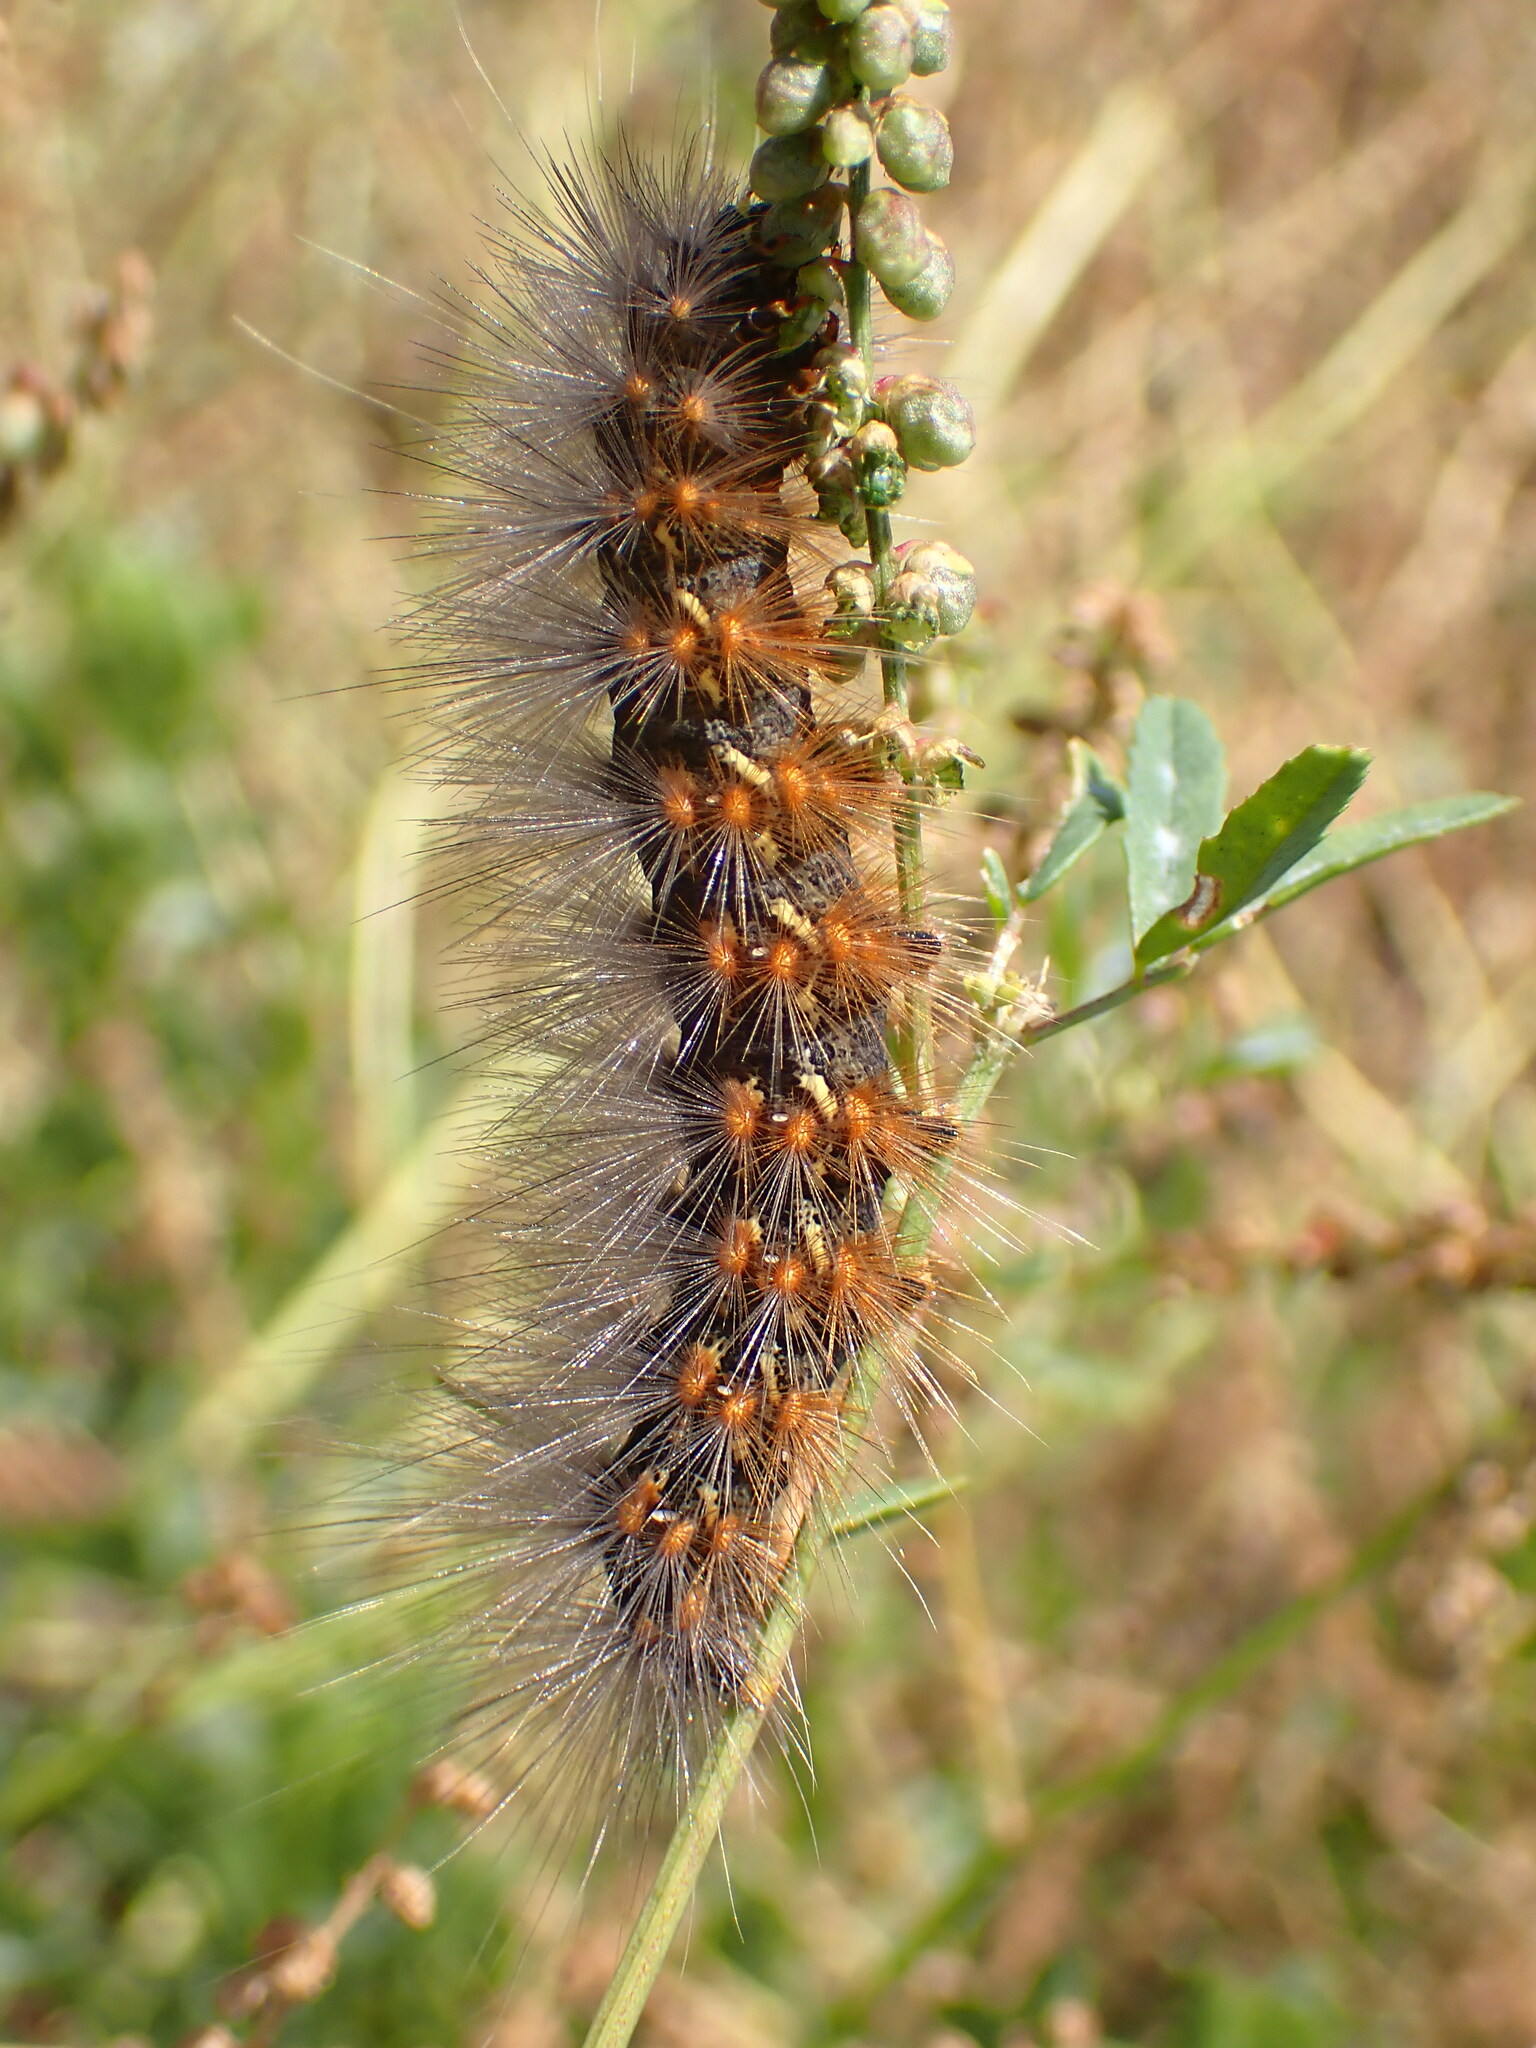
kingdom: Animalia
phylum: Arthropoda
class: Insecta
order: Lepidoptera
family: Erebidae
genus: Estigmene
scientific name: Estigmene acrea
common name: Salt marsh moth
